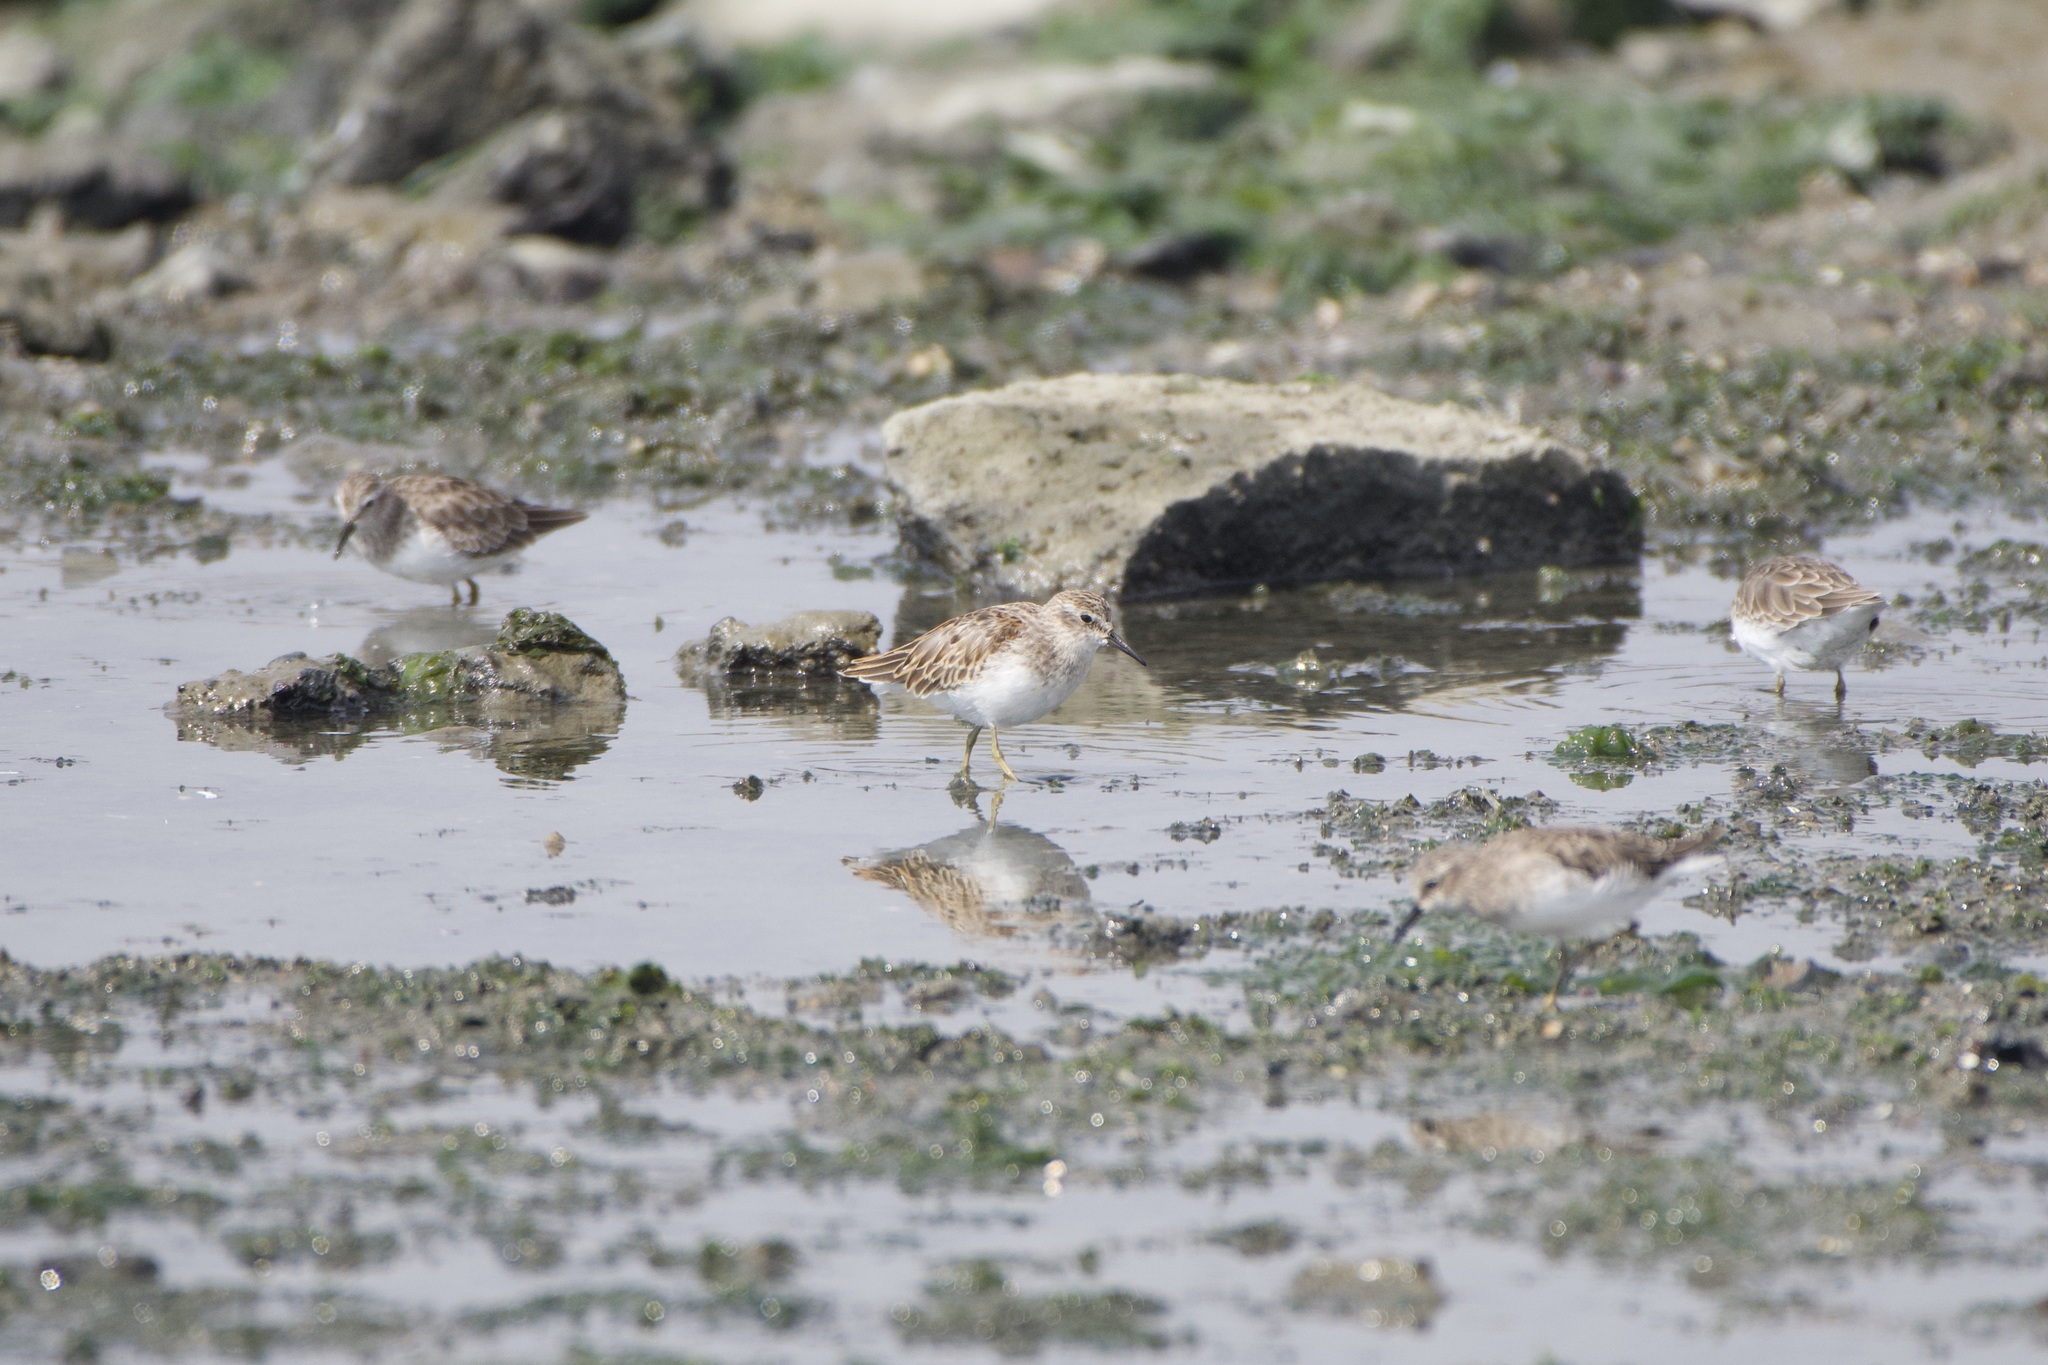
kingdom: Animalia
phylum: Chordata
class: Aves
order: Charadriiformes
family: Scolopacidae
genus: Calidris
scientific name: Calidris minutilla
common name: Least sandpiper
